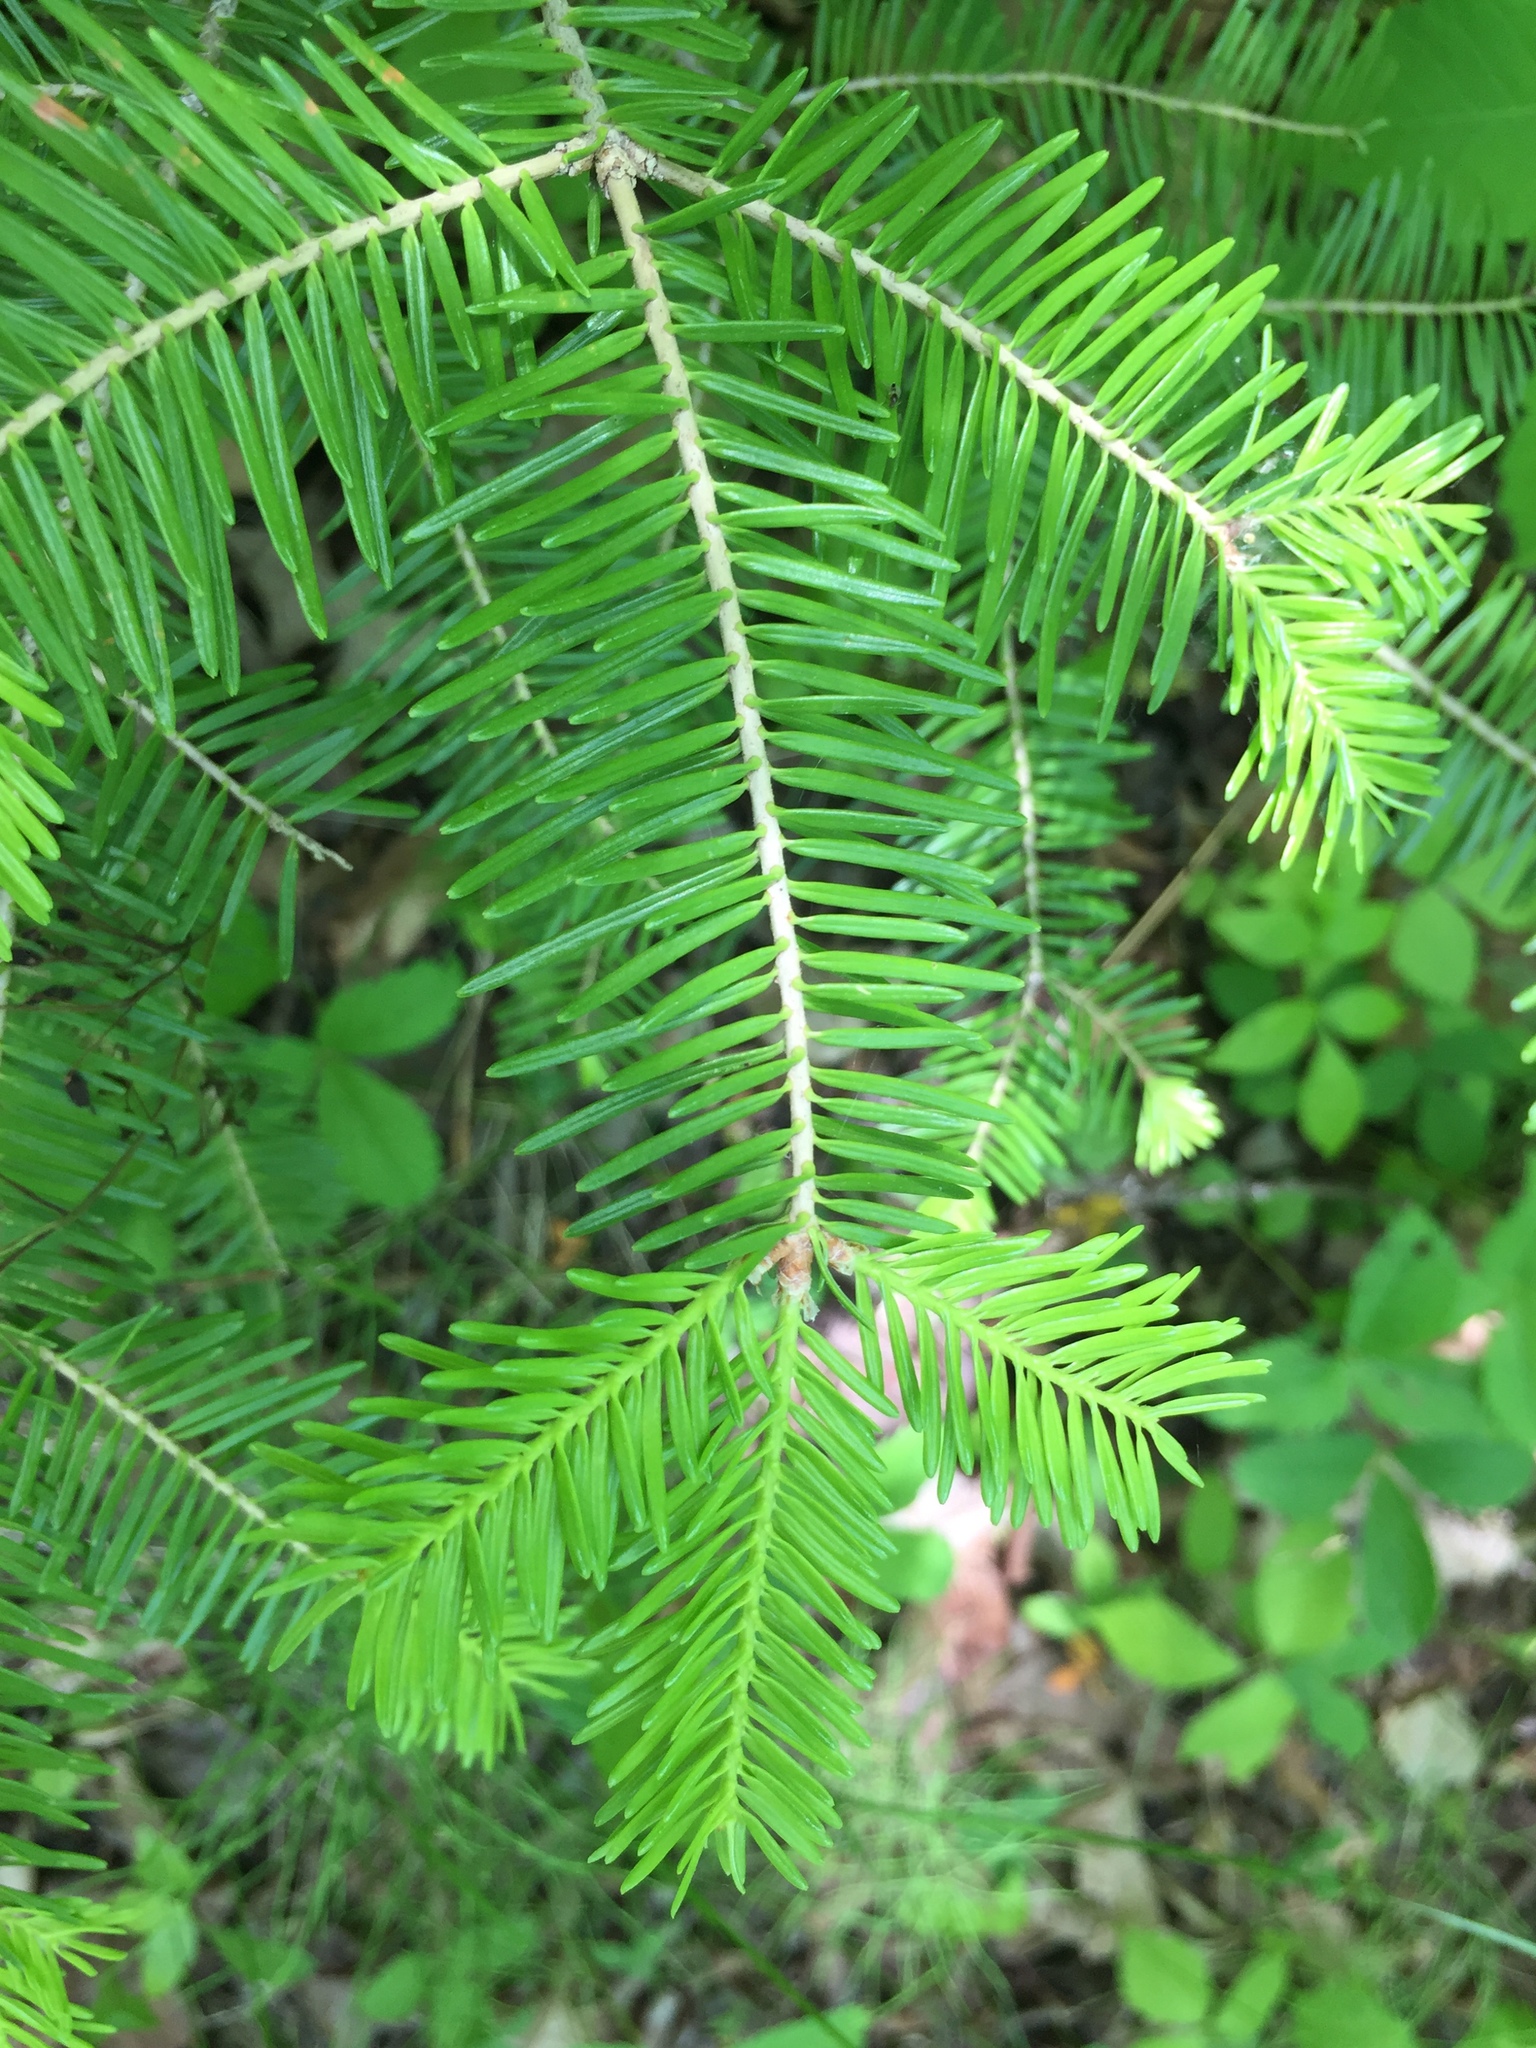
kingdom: Plantae
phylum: Tracheophyta
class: Pinopsida
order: Pinales
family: Pinaceae
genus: Abies
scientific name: Abies balsamea
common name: Balsam fir
